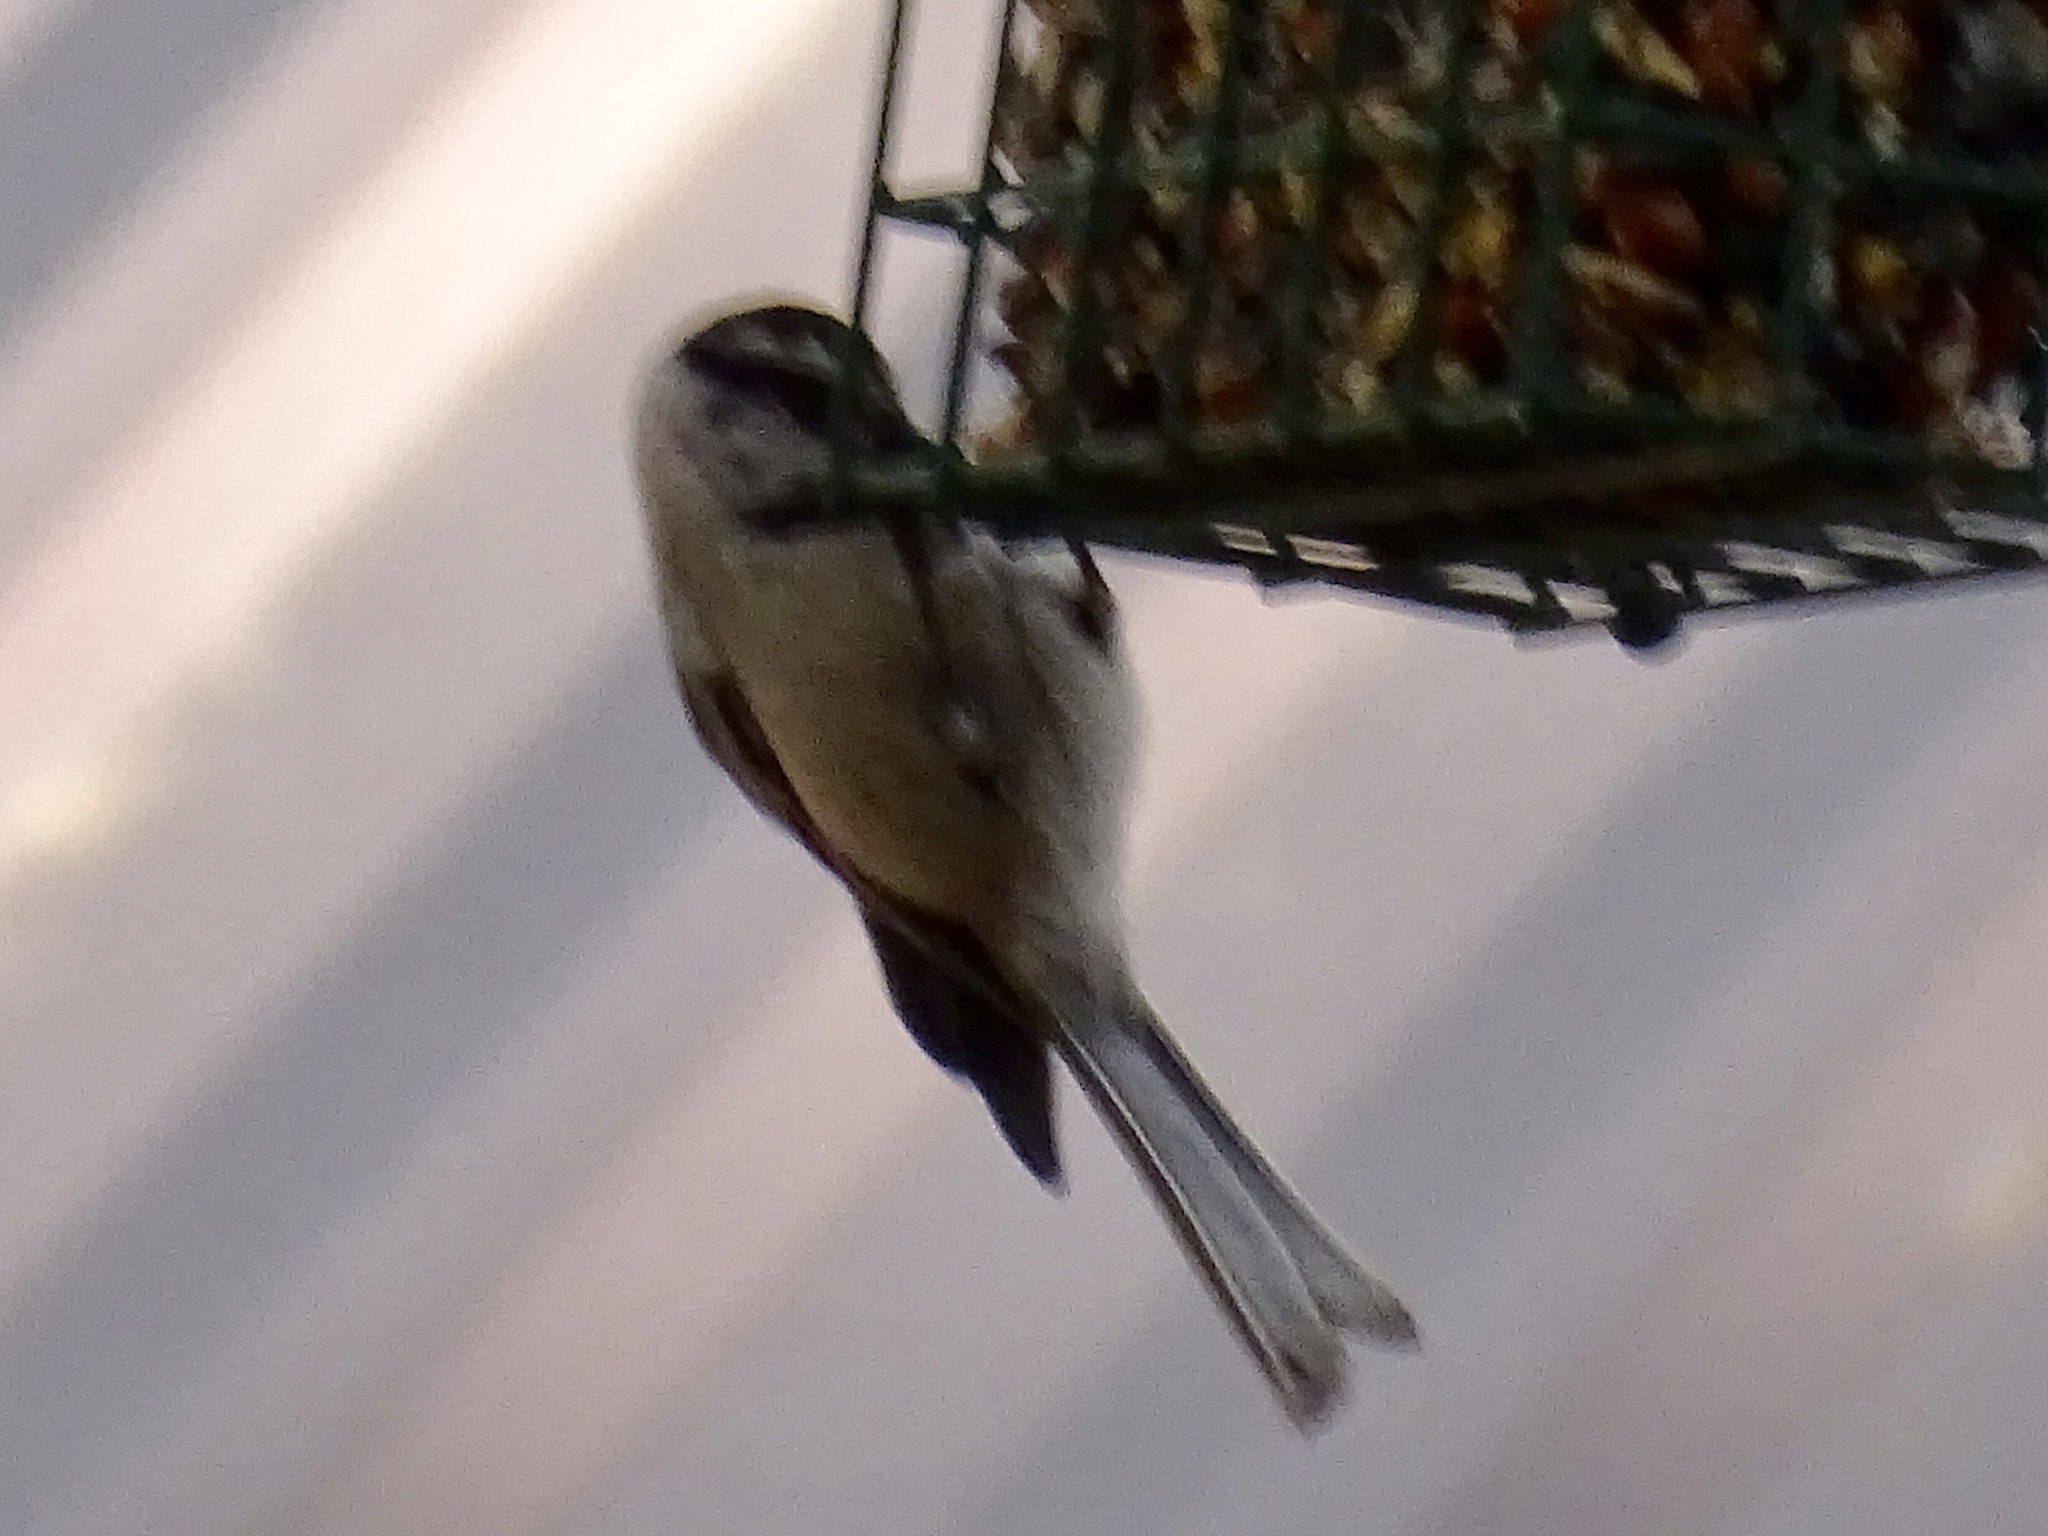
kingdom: Animalia
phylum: Chordata
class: Aves
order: Passeriformes
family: Paridae
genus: Poecile
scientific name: Poecile gambeli
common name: Mountain chickadee
